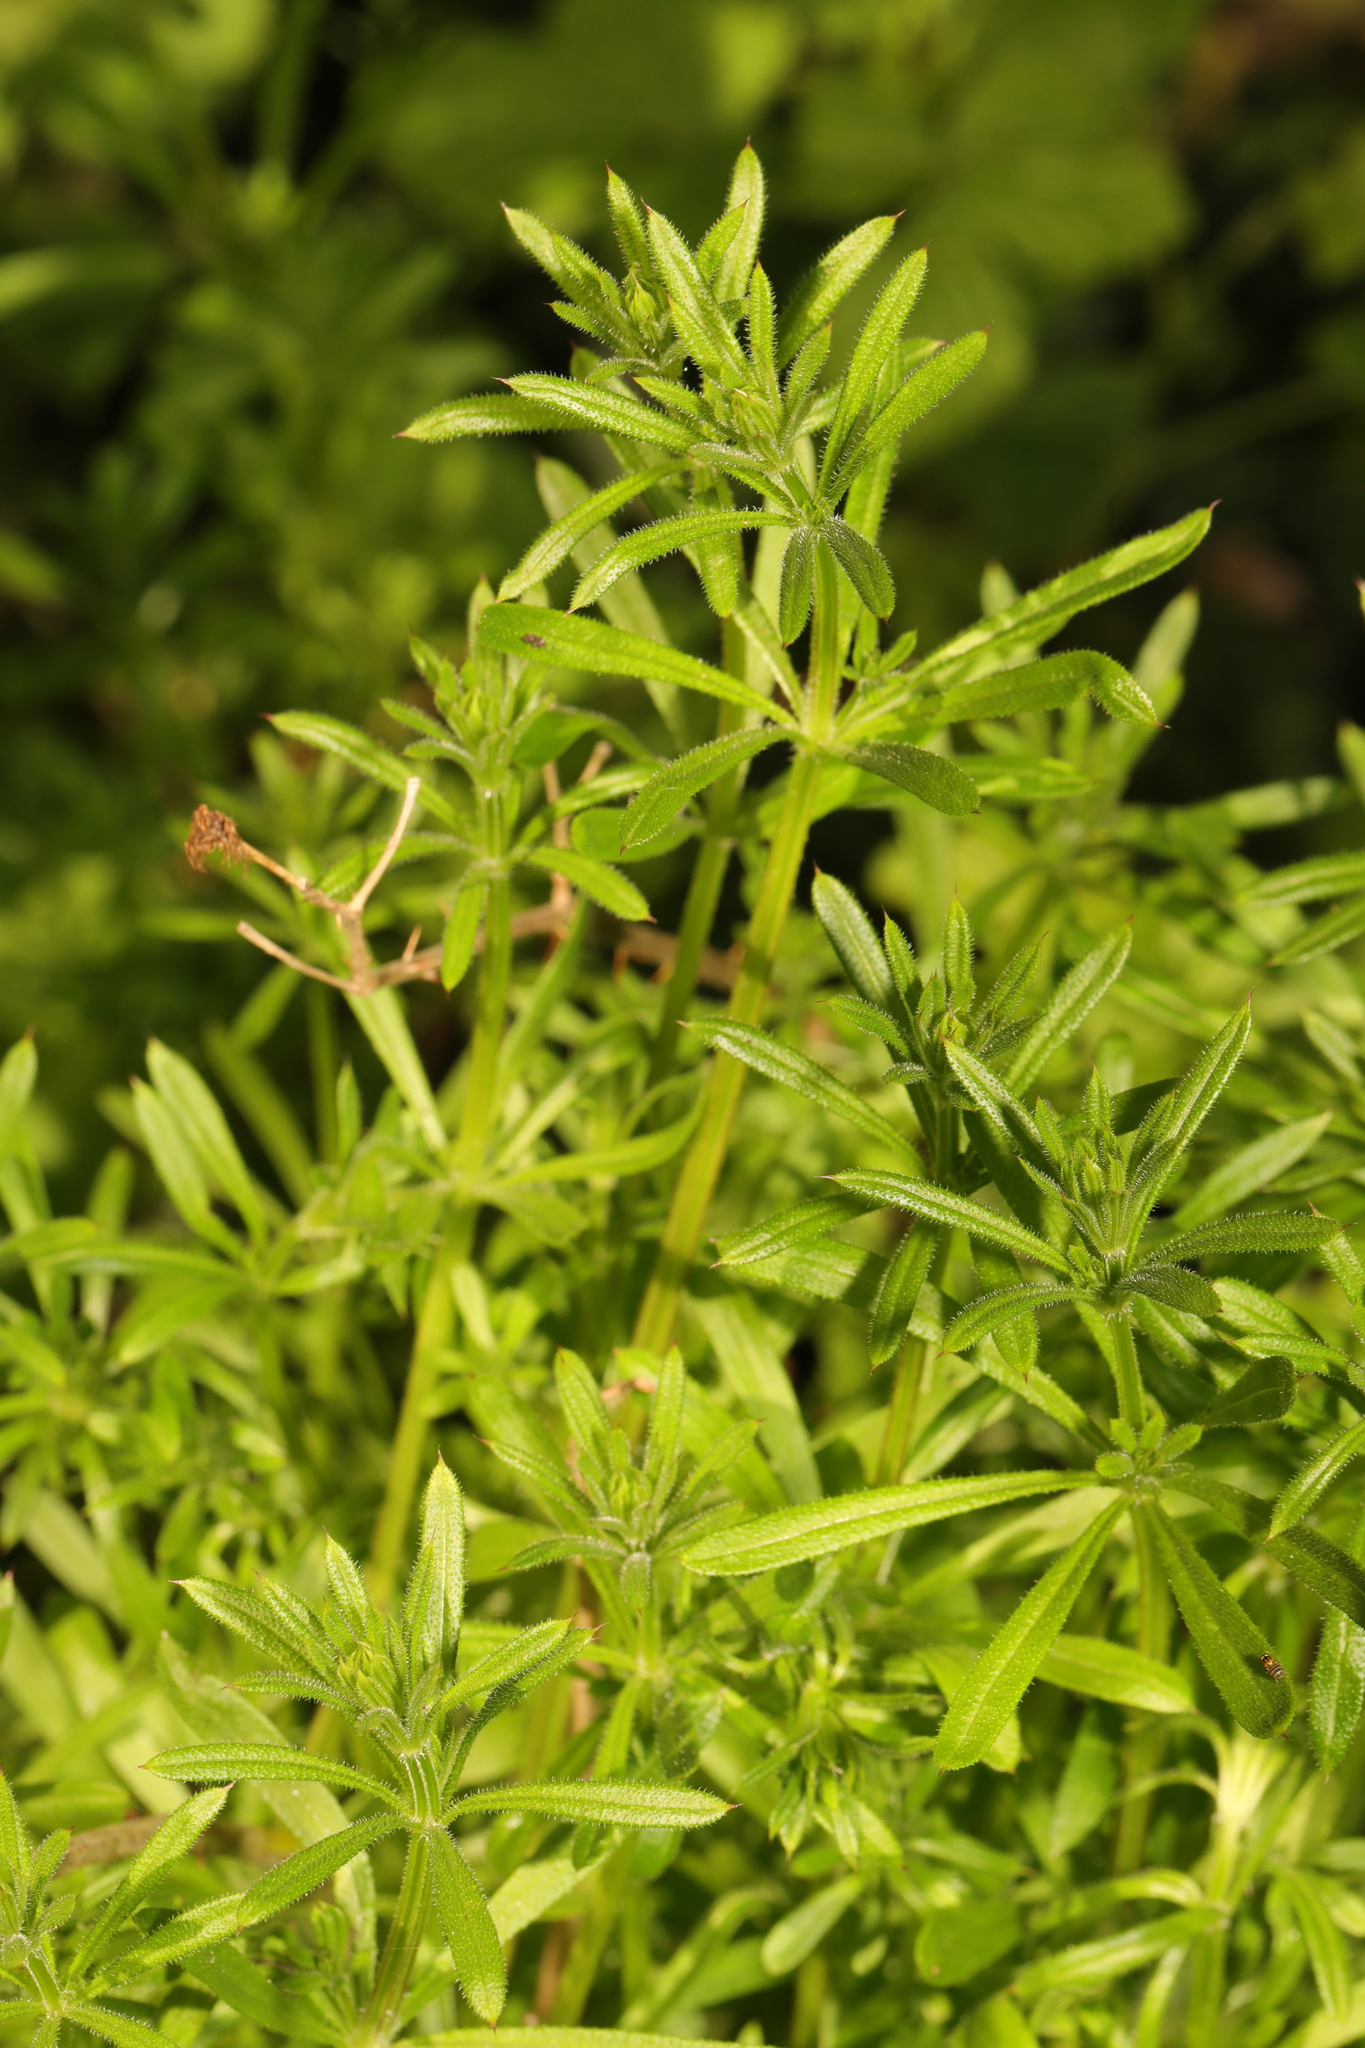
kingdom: Plantae
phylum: Tracheophyta
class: Magnoliopsida
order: Gentianales
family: Rubiaceae
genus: Galium
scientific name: Galium aparine
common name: Cleavers
